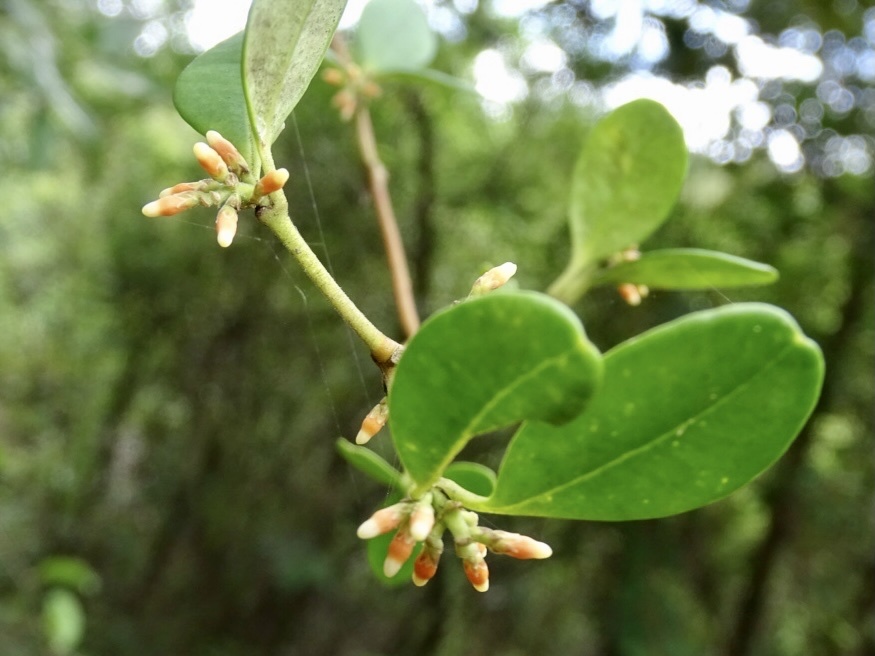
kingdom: Plantae
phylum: Tracheophyta
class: Magnoliopsida
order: Gentianales
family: Apocynaceae
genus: Alyxia
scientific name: Alyxia sinensis
